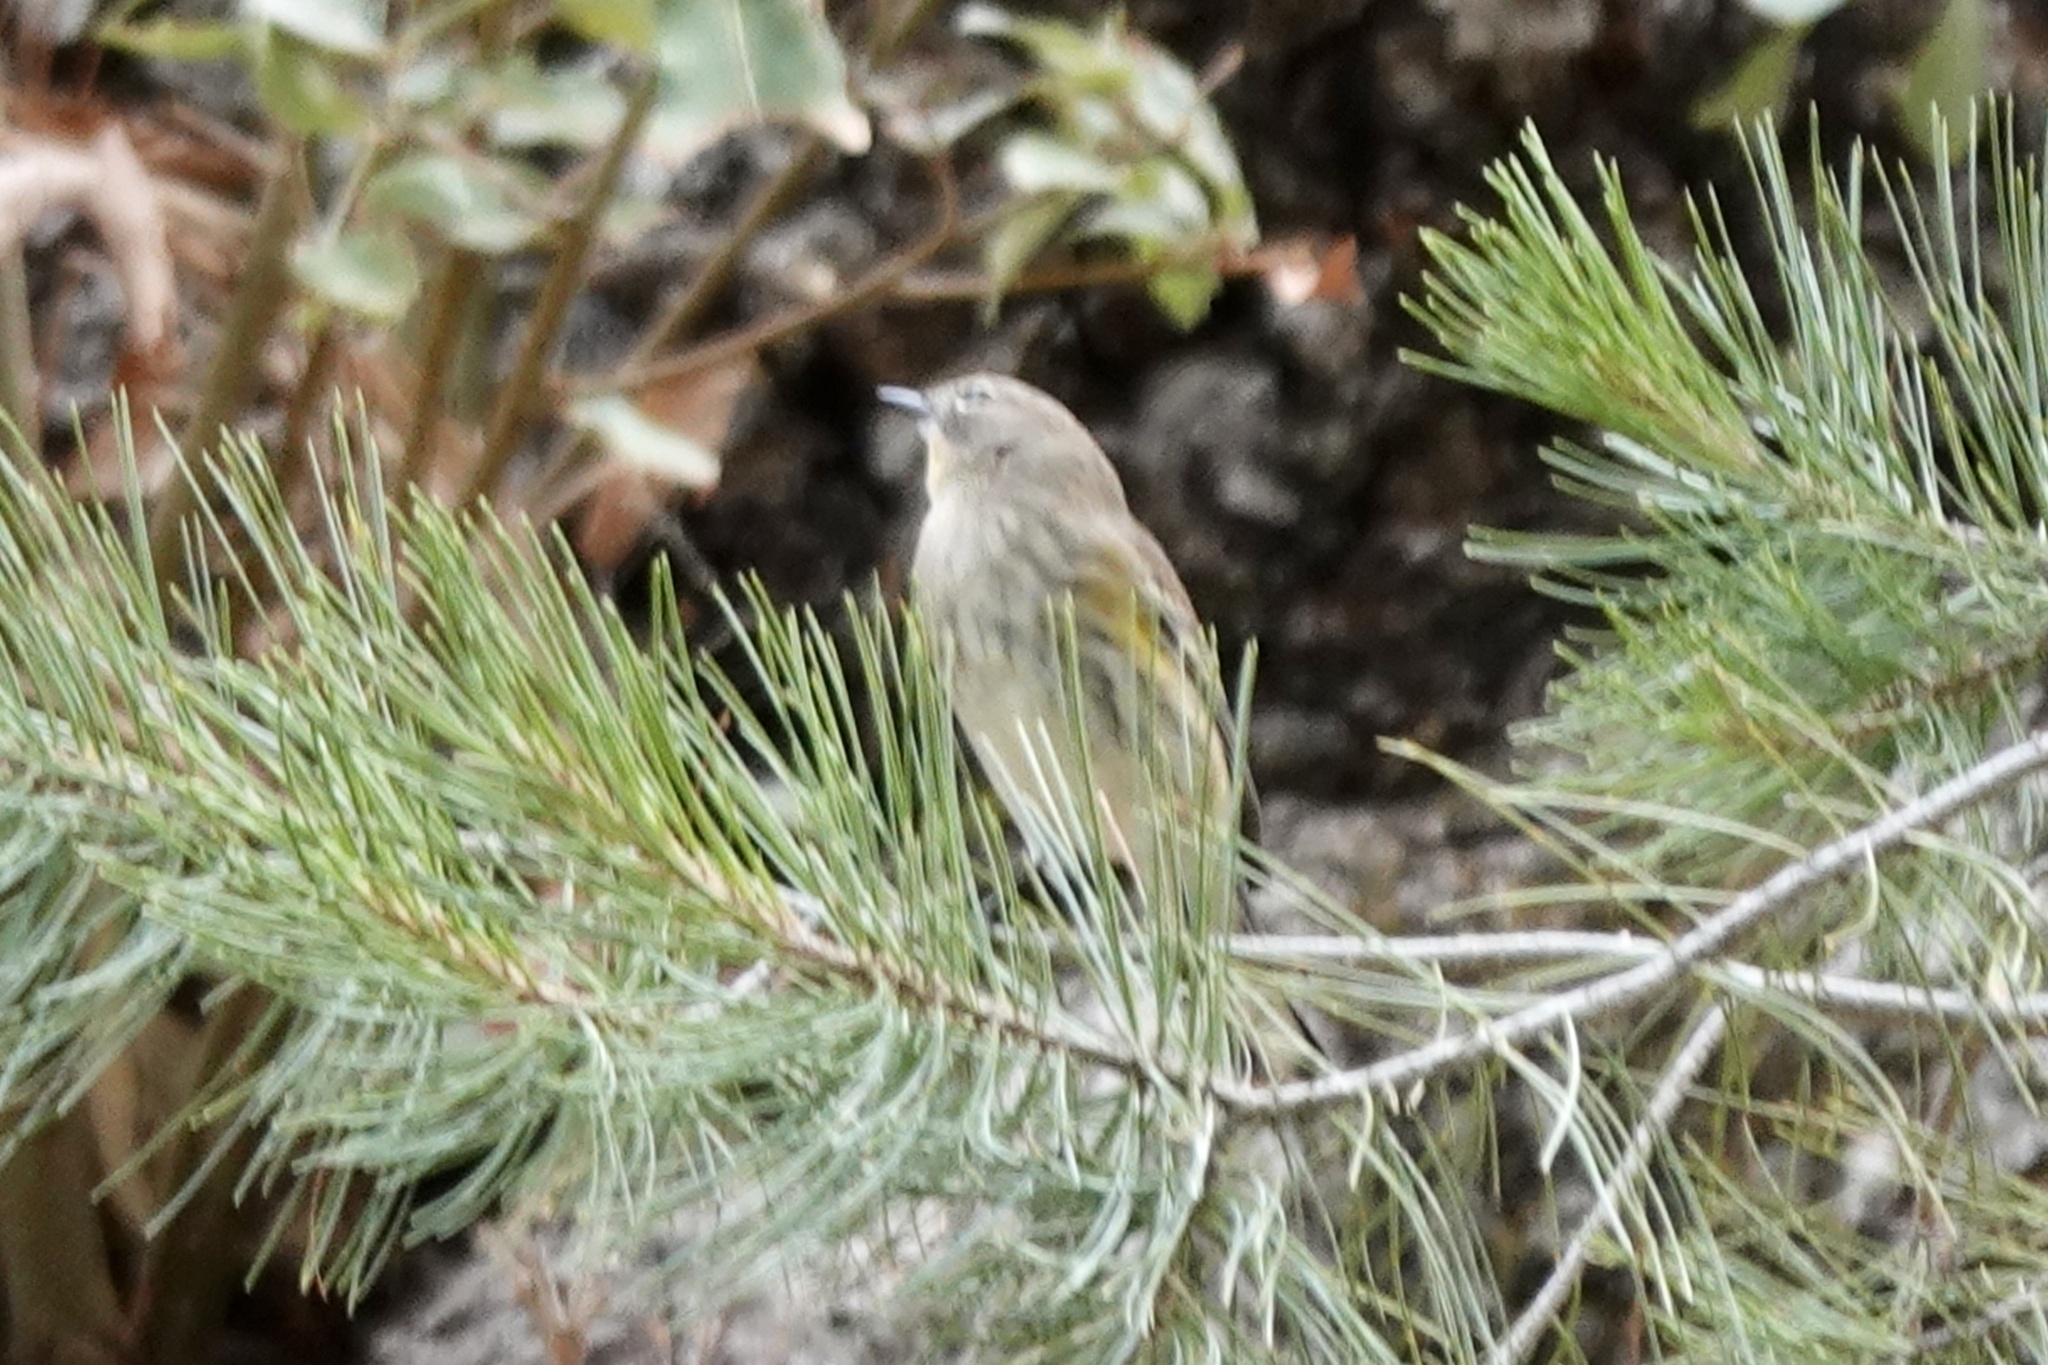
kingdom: Animalia
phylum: Chordata
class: Aves
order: Passeriformes
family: Parulidae
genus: Setophaga
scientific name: Setophaga coronata
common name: Myrtle warbler
